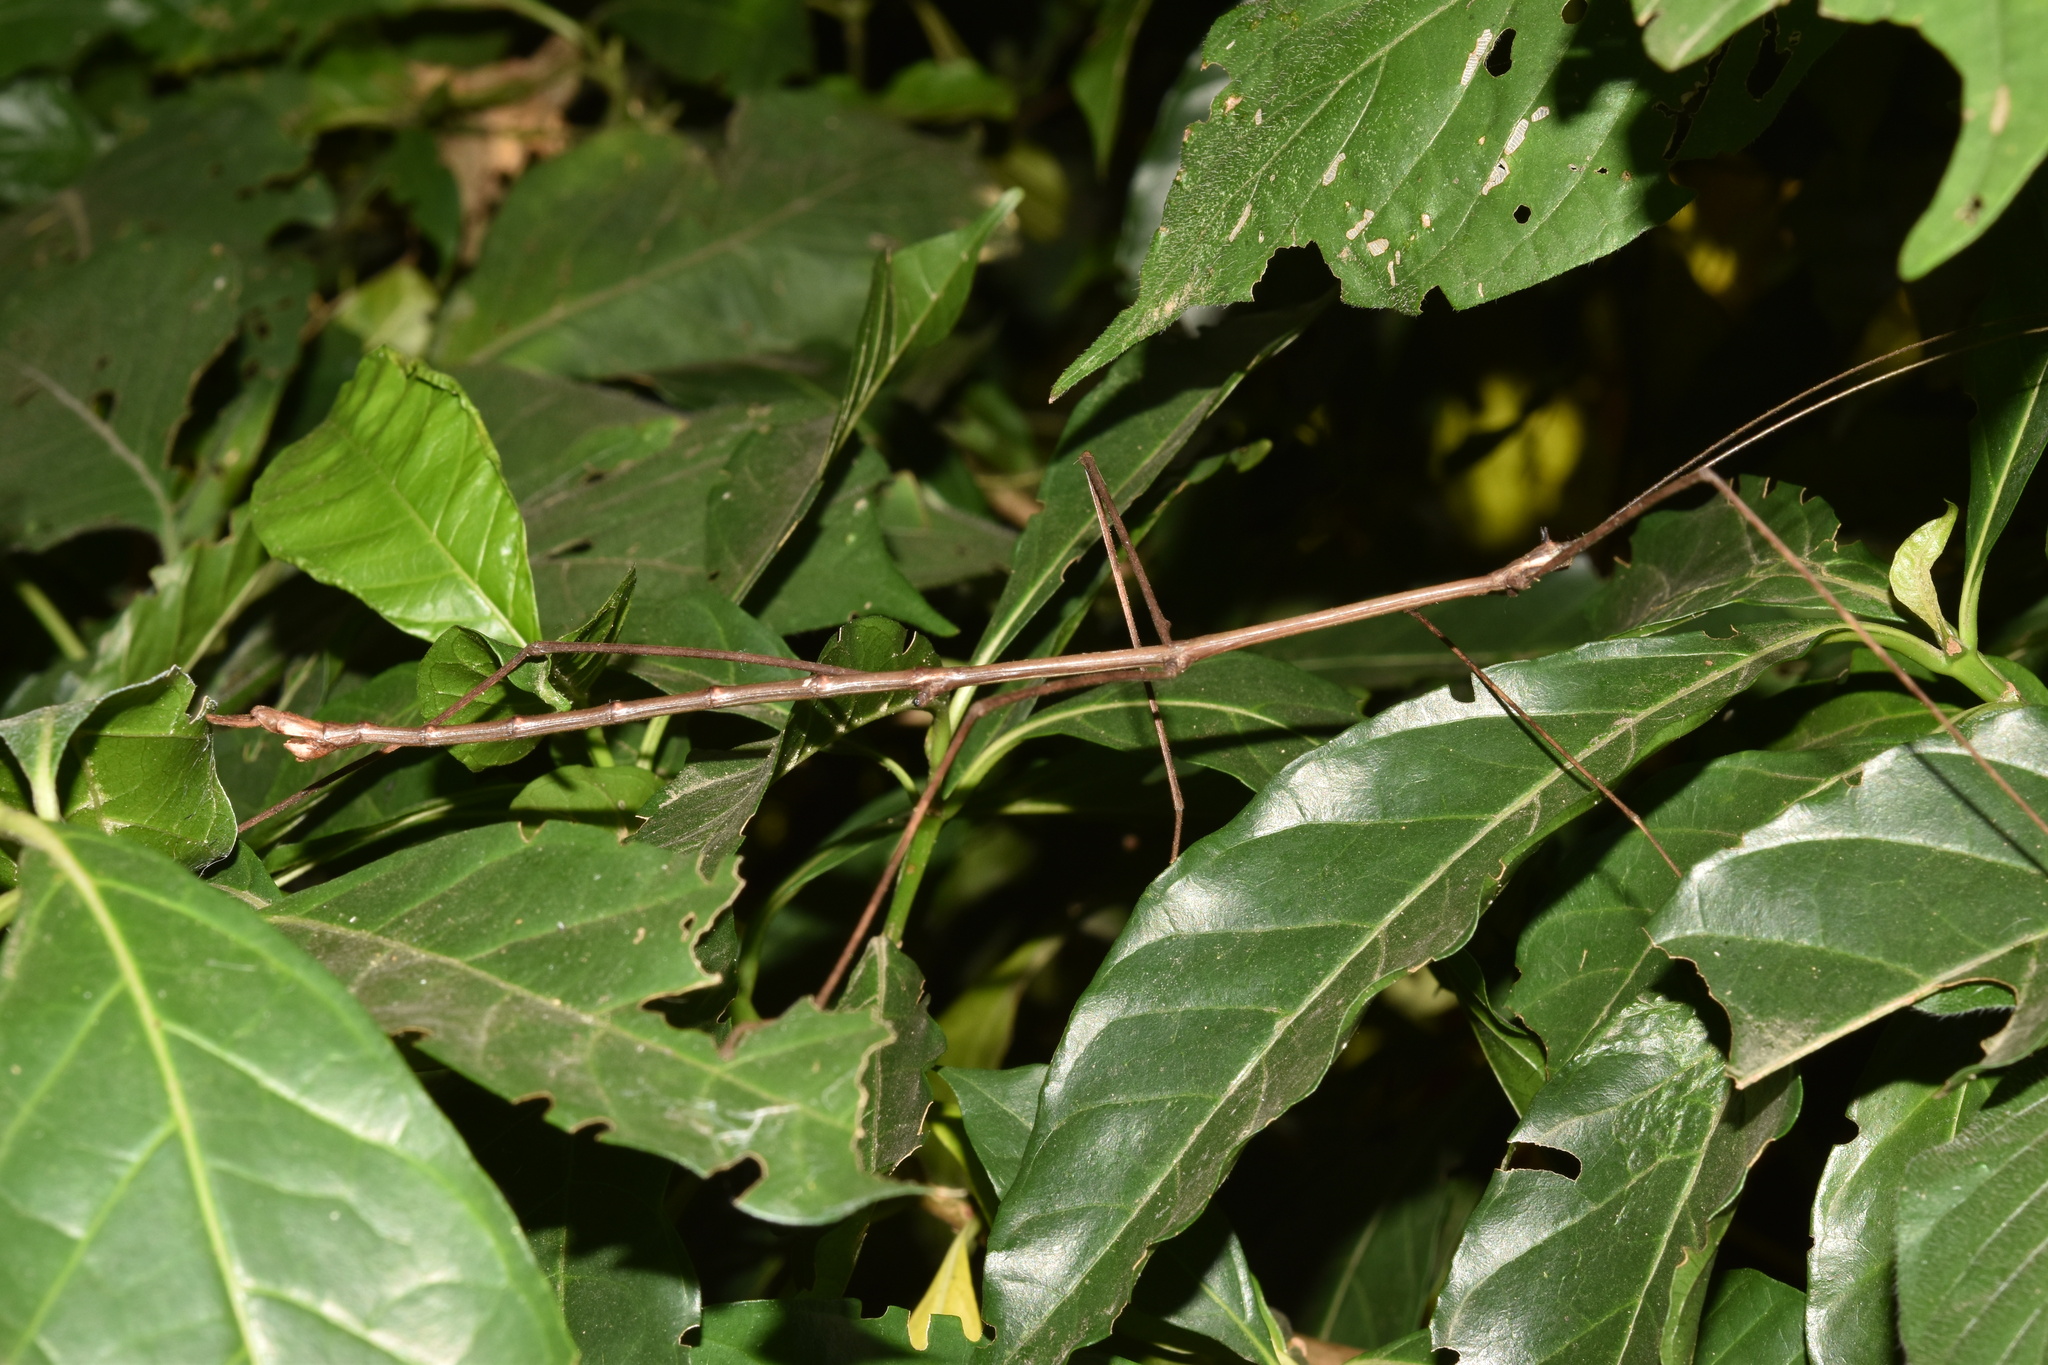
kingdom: Animalia
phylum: Arthropoda
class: Insecta
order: Phasmida
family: Diapheromeridae
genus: Bactricia
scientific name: Bactricia bituberculata
